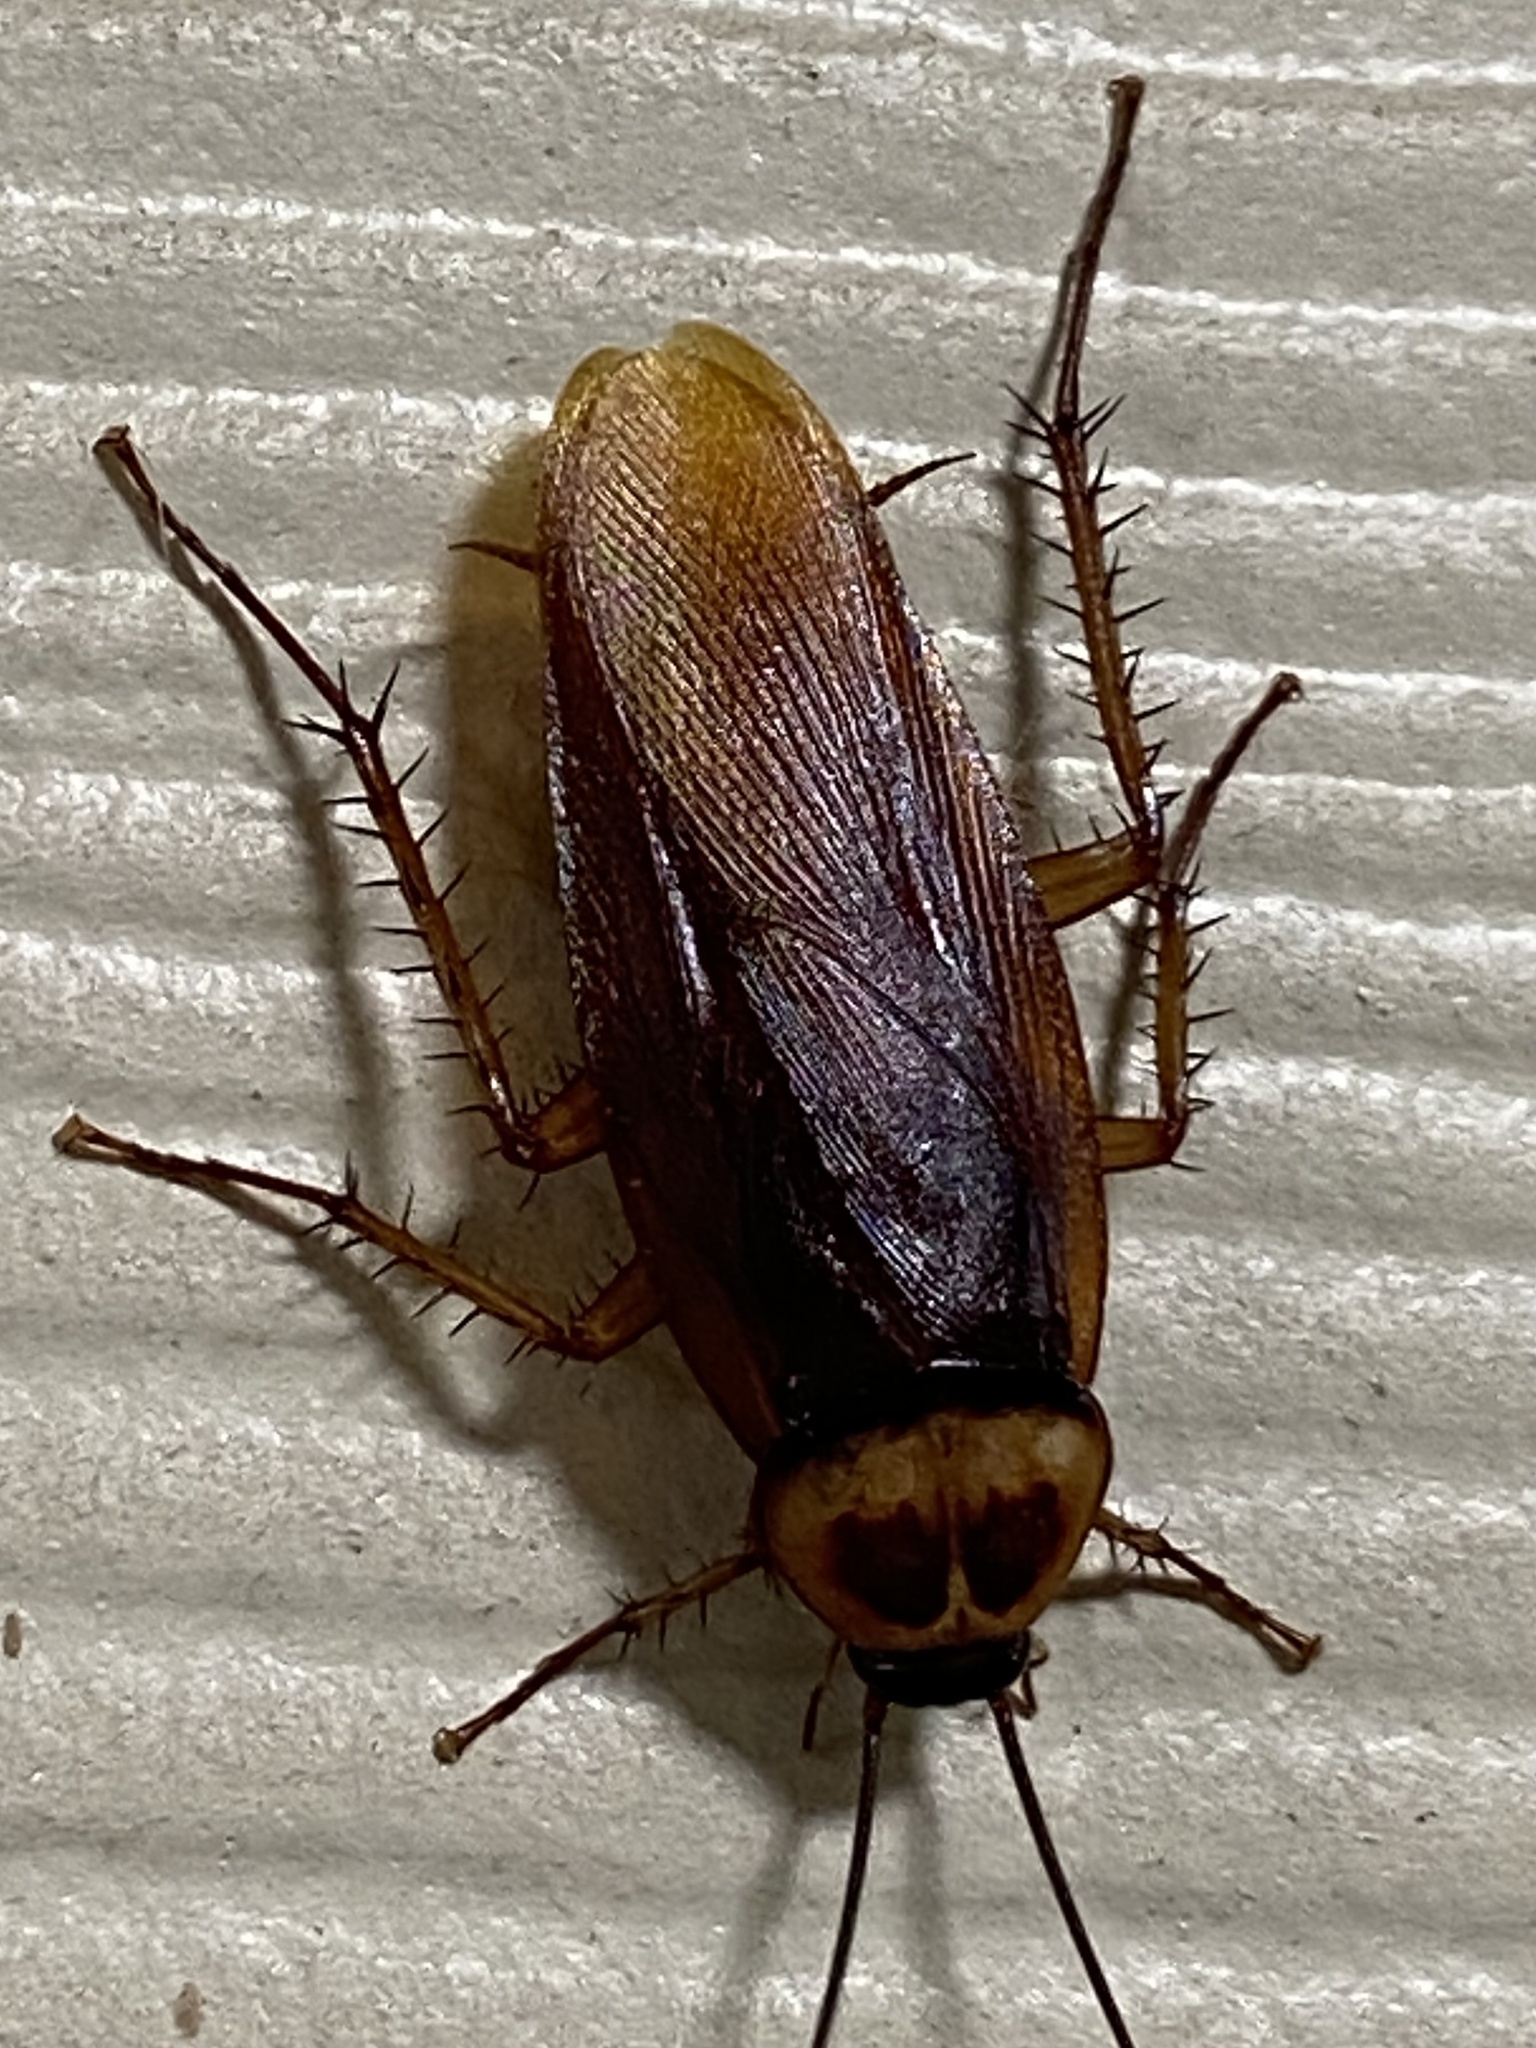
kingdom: Animalia
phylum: Arthropoda
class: Insecta
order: Blattodea
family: Blattidae
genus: Periplaneta
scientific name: Periplaneta americana
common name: American cockroach
